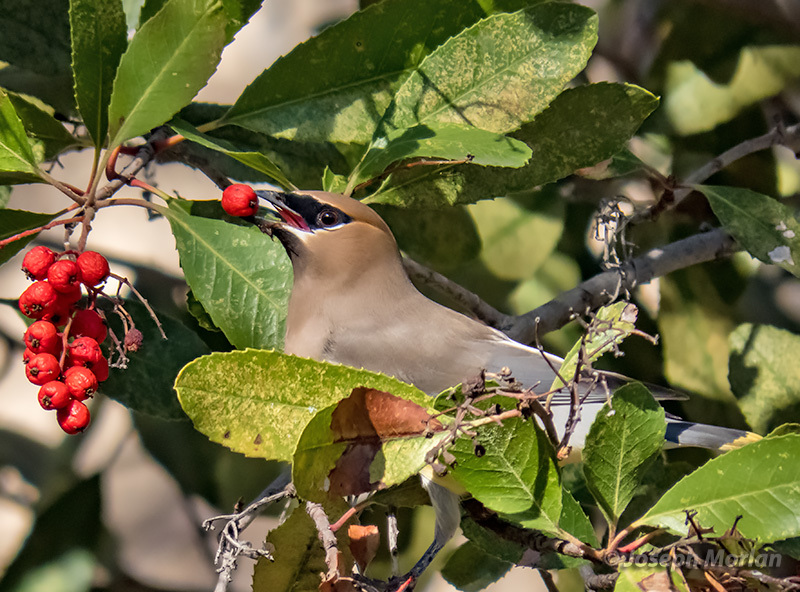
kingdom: Animalia
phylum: Chordata
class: Aves
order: Passeriformes
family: Bombycillidae
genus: Bombycilla
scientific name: Bombycilla cedrorum
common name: Cedar waxwing
